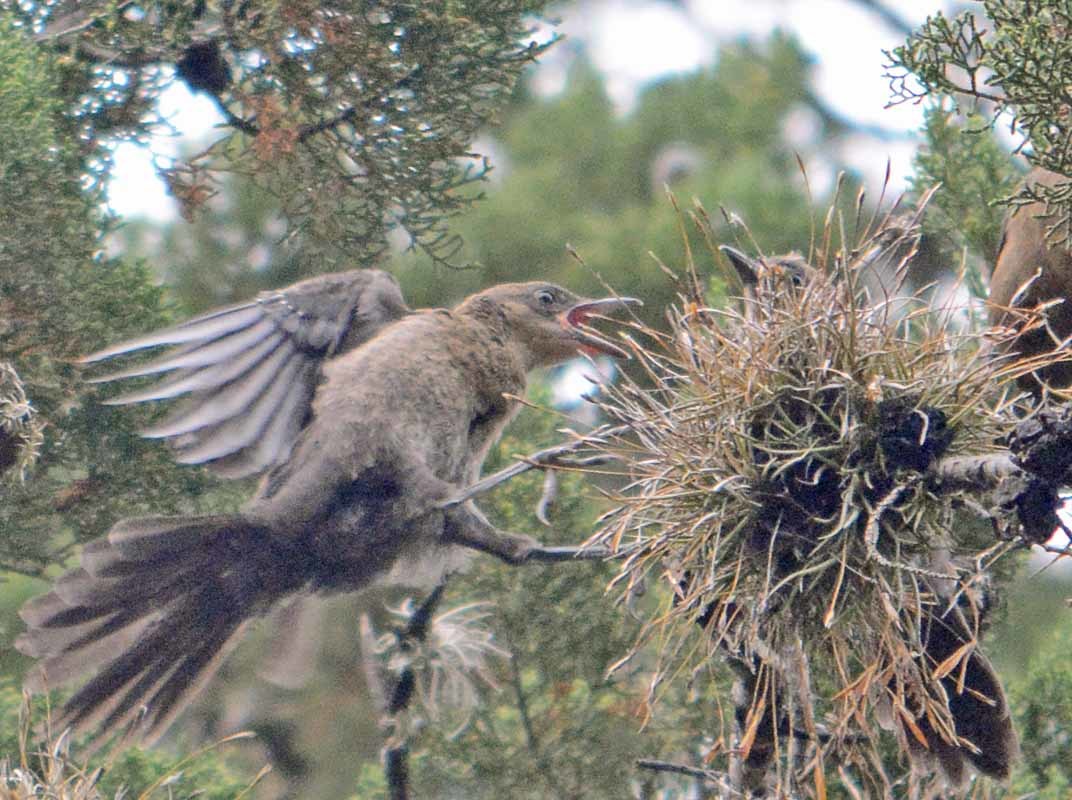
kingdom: Animalia
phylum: Chordata
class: Aves
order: Passeriformes
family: Icteridae
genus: Quiscalus
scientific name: Quiscalus mexicanus
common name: Great-tailed grackle
